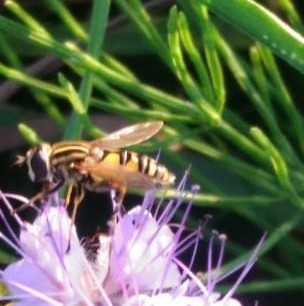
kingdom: Animalia
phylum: Arthropoda
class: Insecta
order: Diptera
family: Syrphidae
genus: Helophilus
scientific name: Helophilus pendulus
